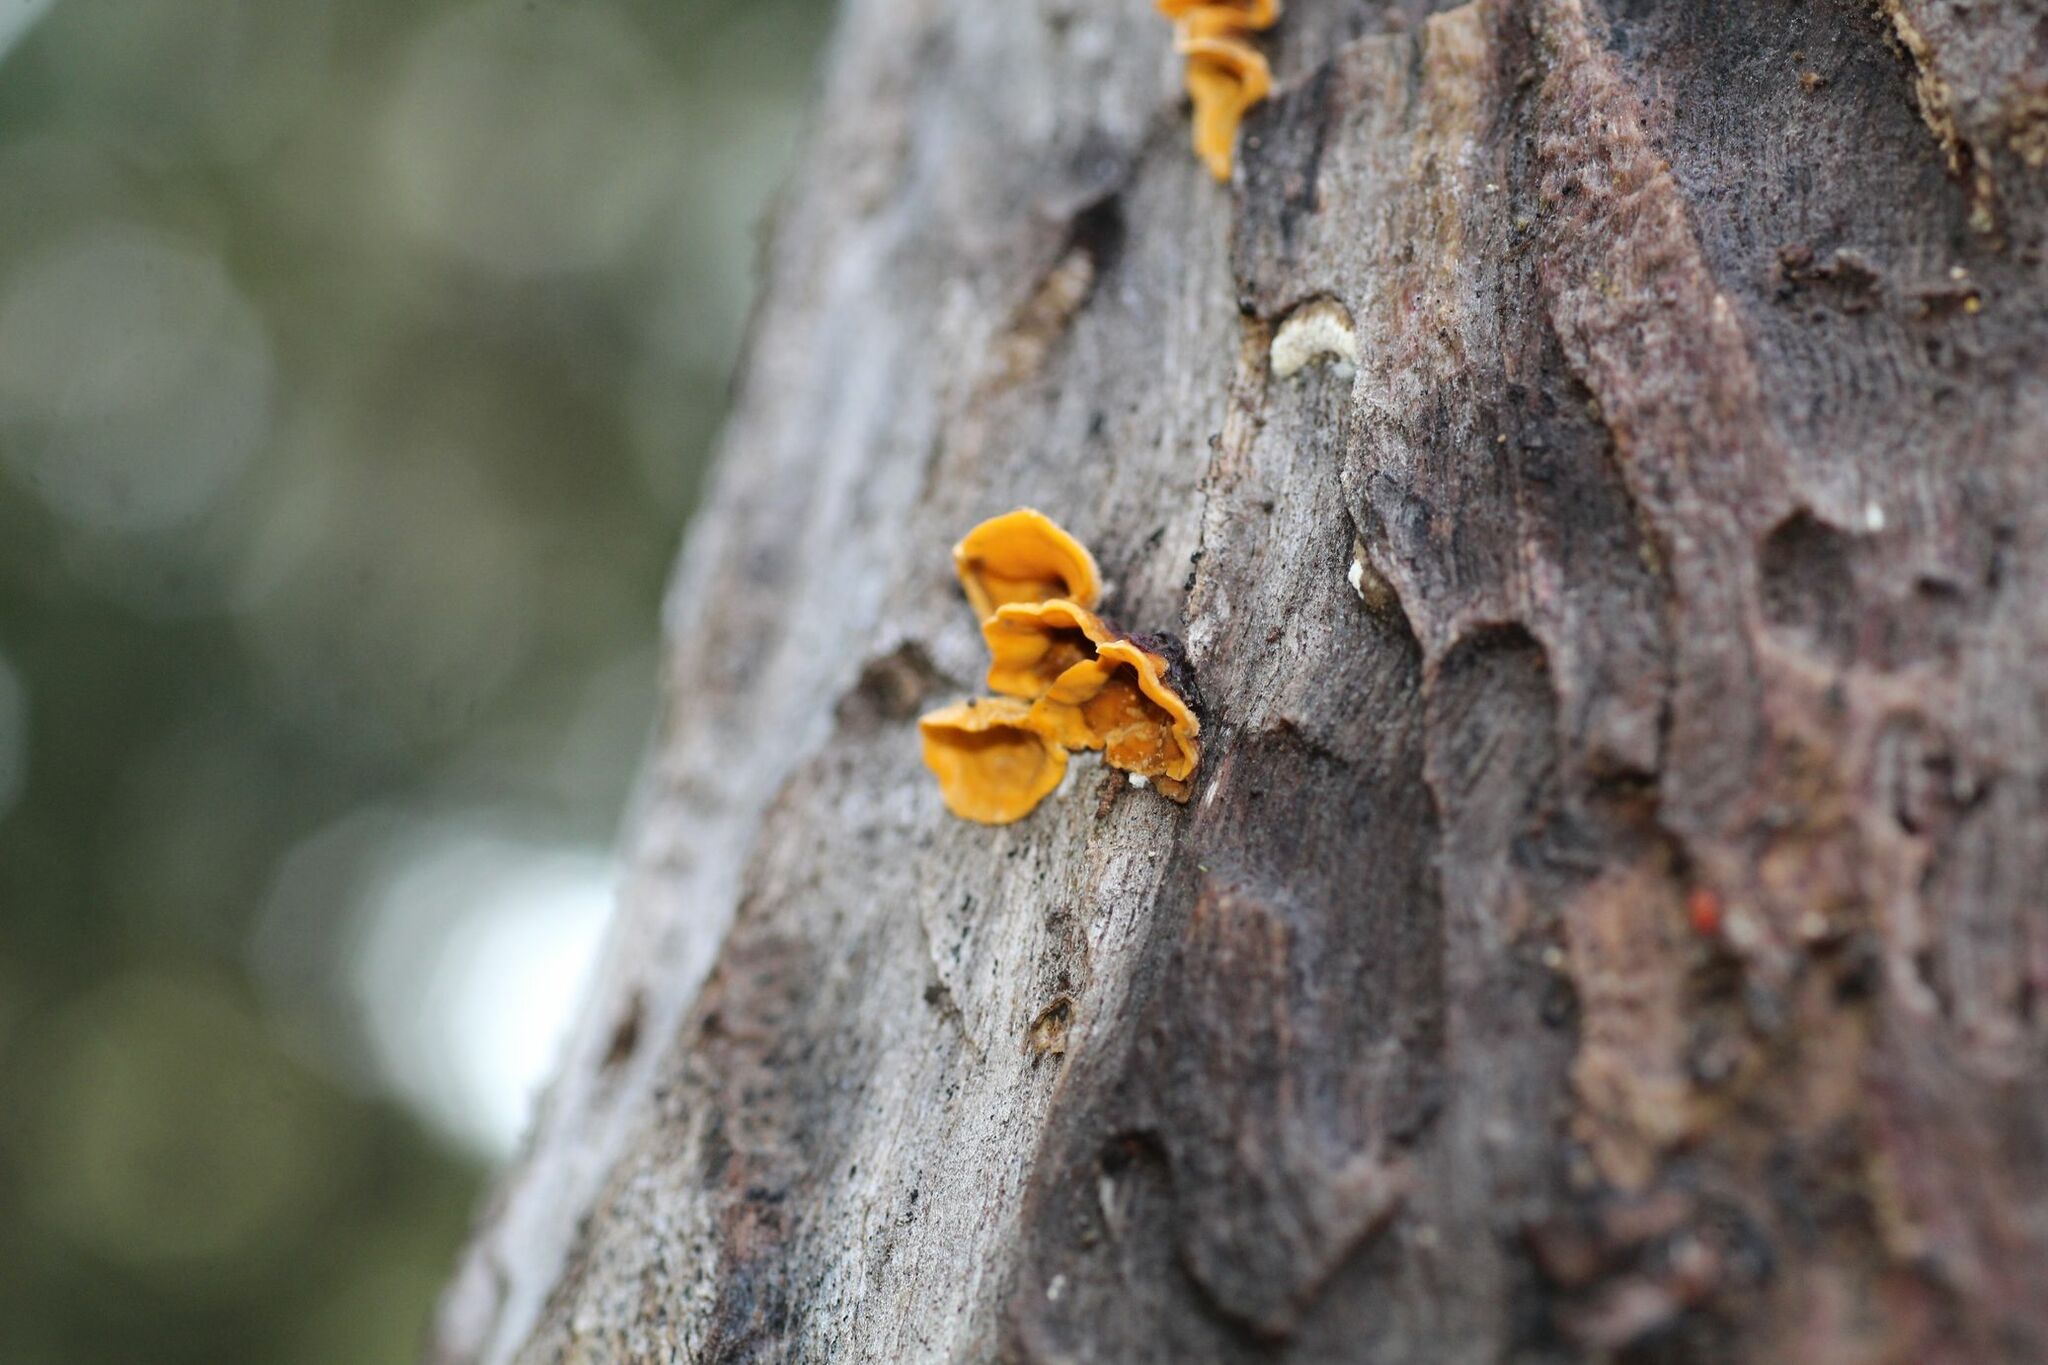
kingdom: Fungi
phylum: Basidiomycota
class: Agaricomycetes
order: Russulales
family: Stereaceae
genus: Stereum
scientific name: Stereum hirsutum
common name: Hairy curtain crust
